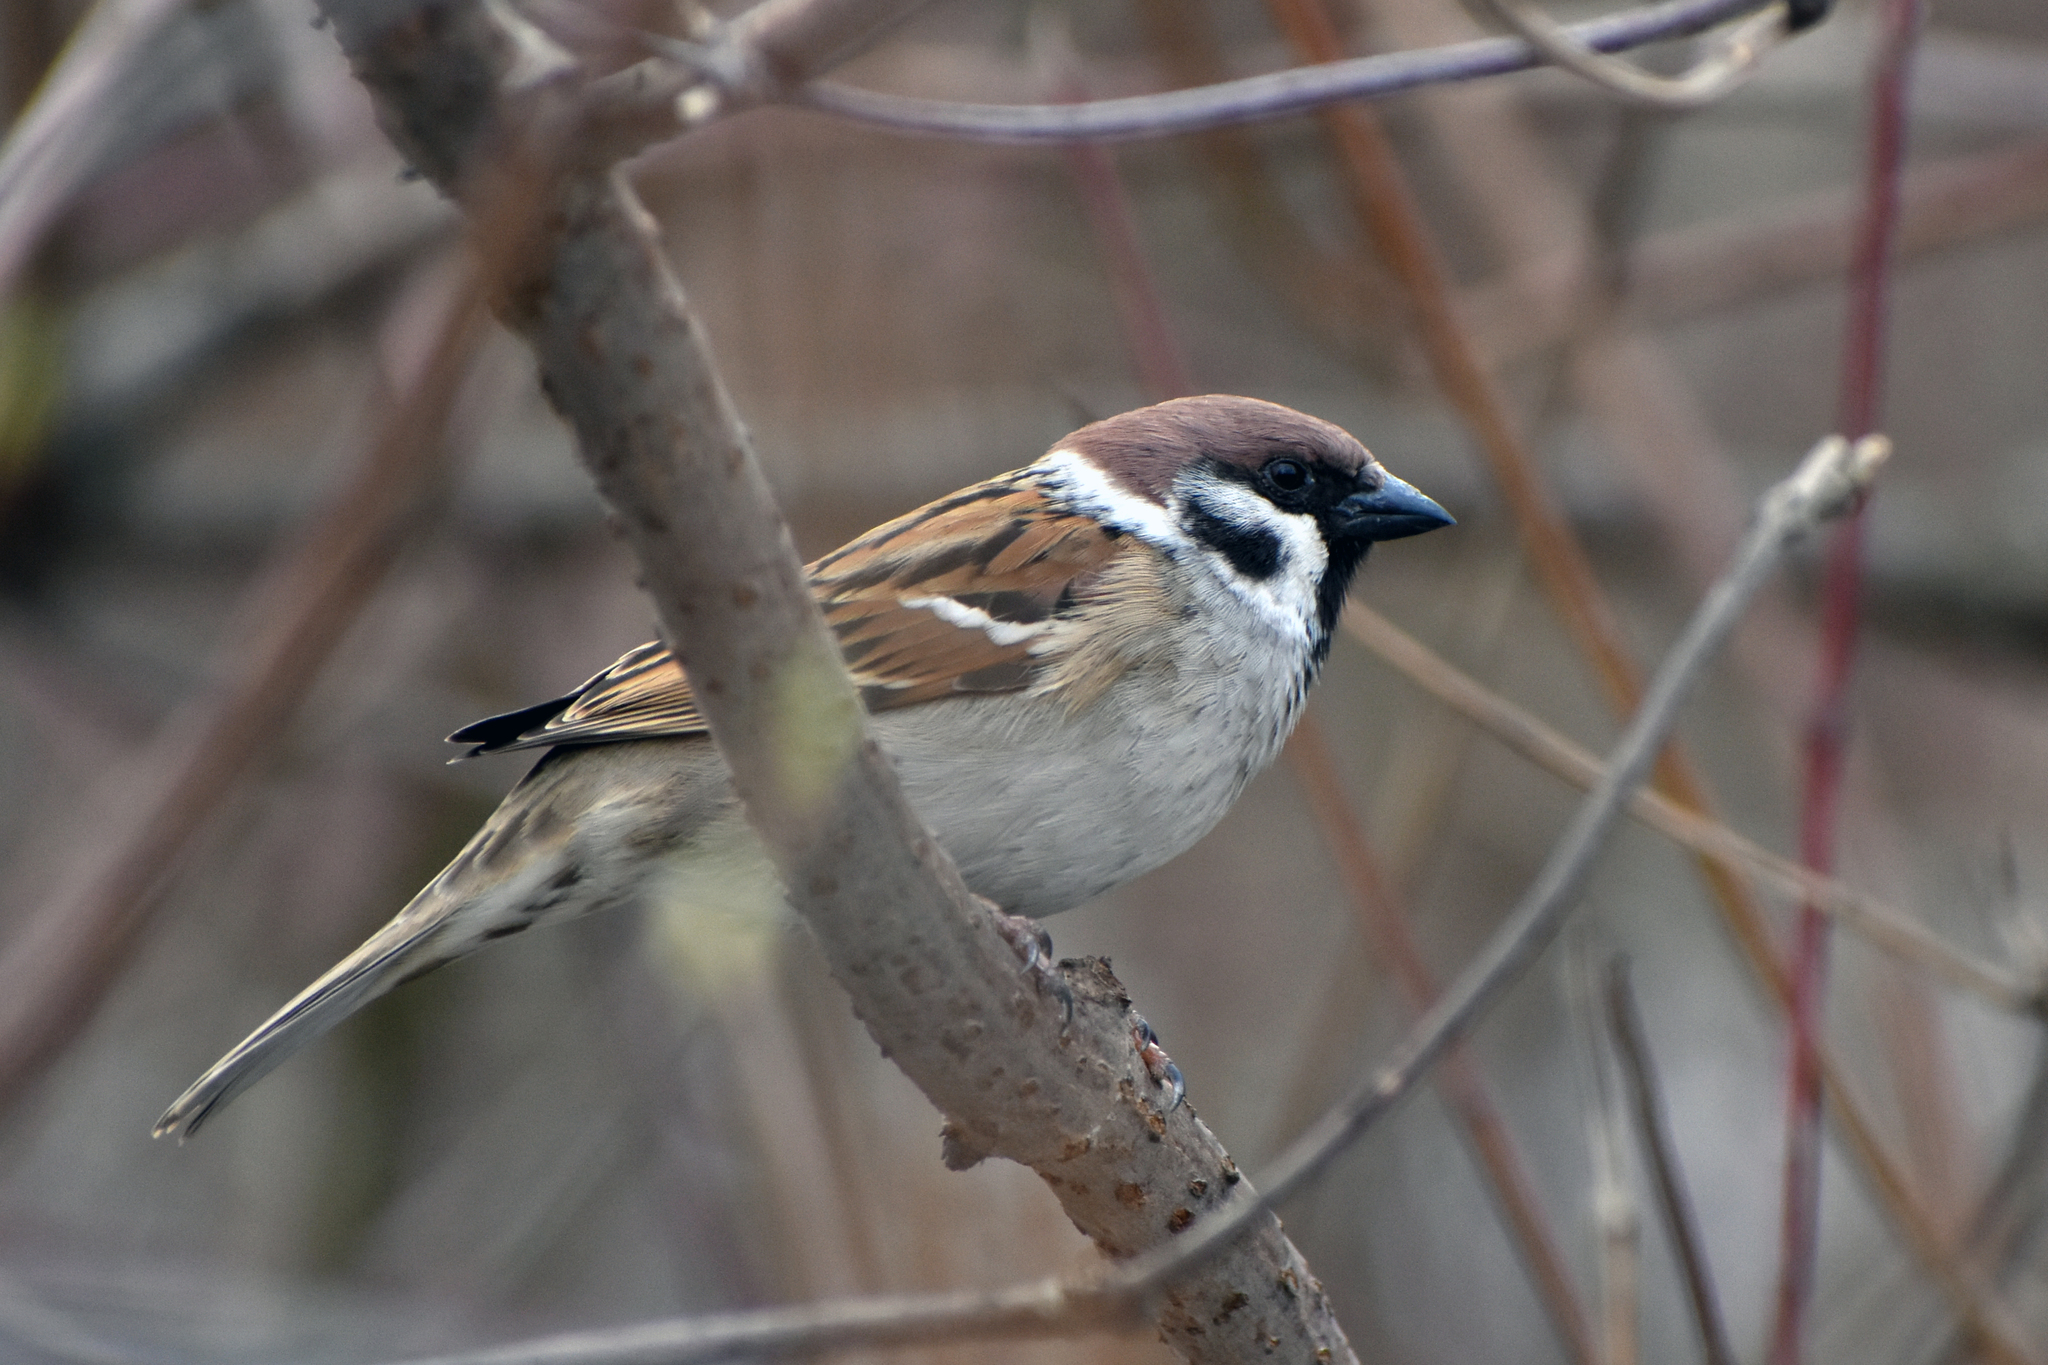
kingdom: Animalia
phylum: Chordata
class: Aves
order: Passeriformes
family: Passeridae
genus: Passer
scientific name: Passer montanus
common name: Eurasian tree sparrow
